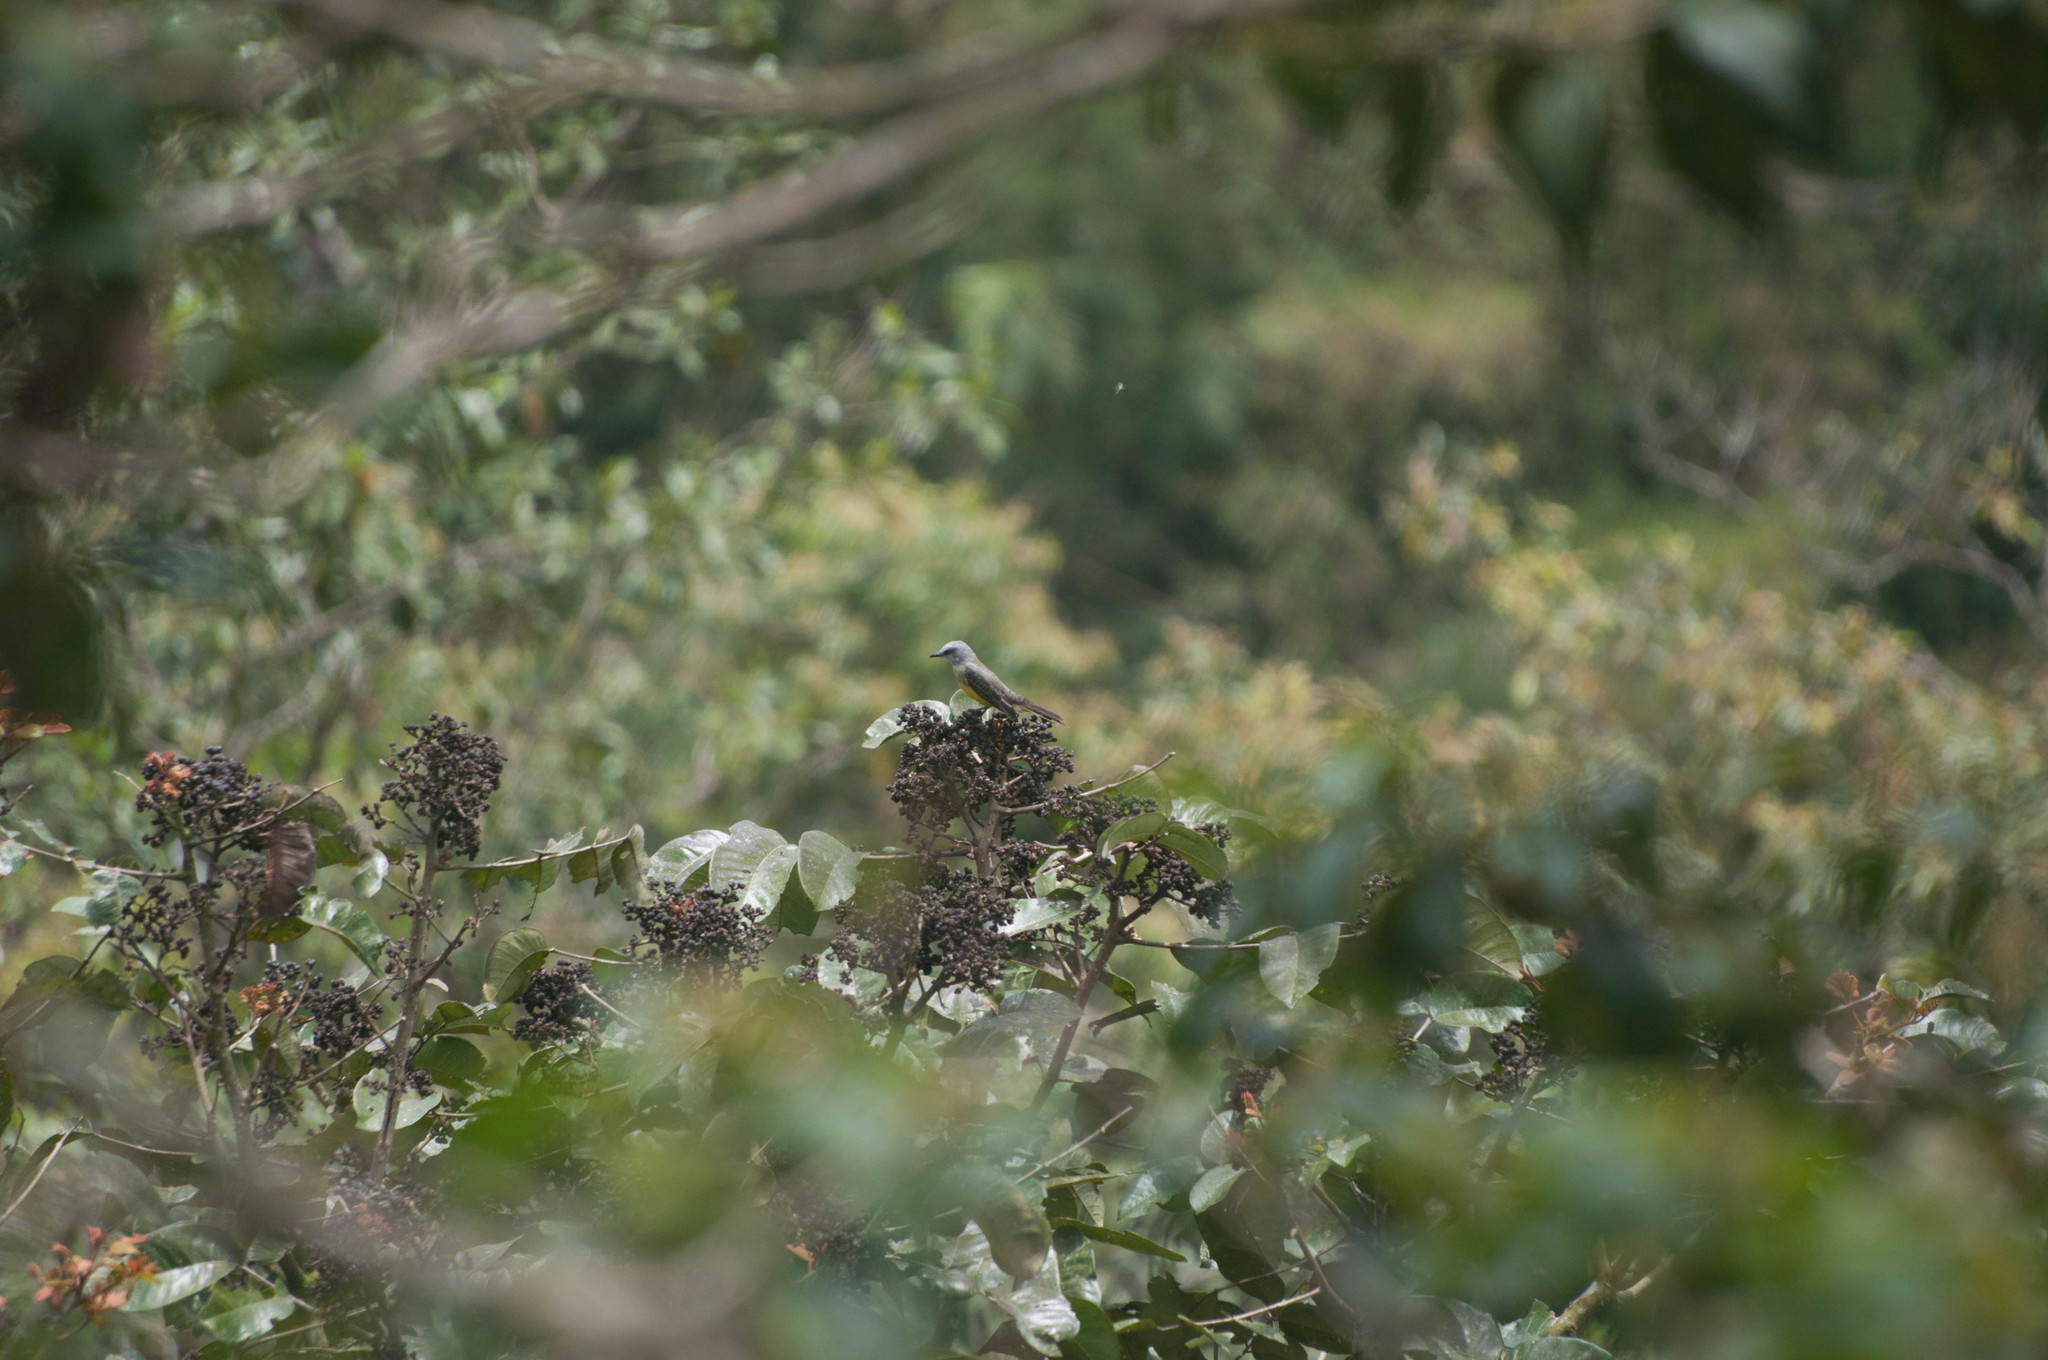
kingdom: Animalia
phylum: Chordata
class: Aves
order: Passeriformes
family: Tyrannidae
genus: Tyrannus
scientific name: Tyrannus melancholicus
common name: Tropical kingbird
